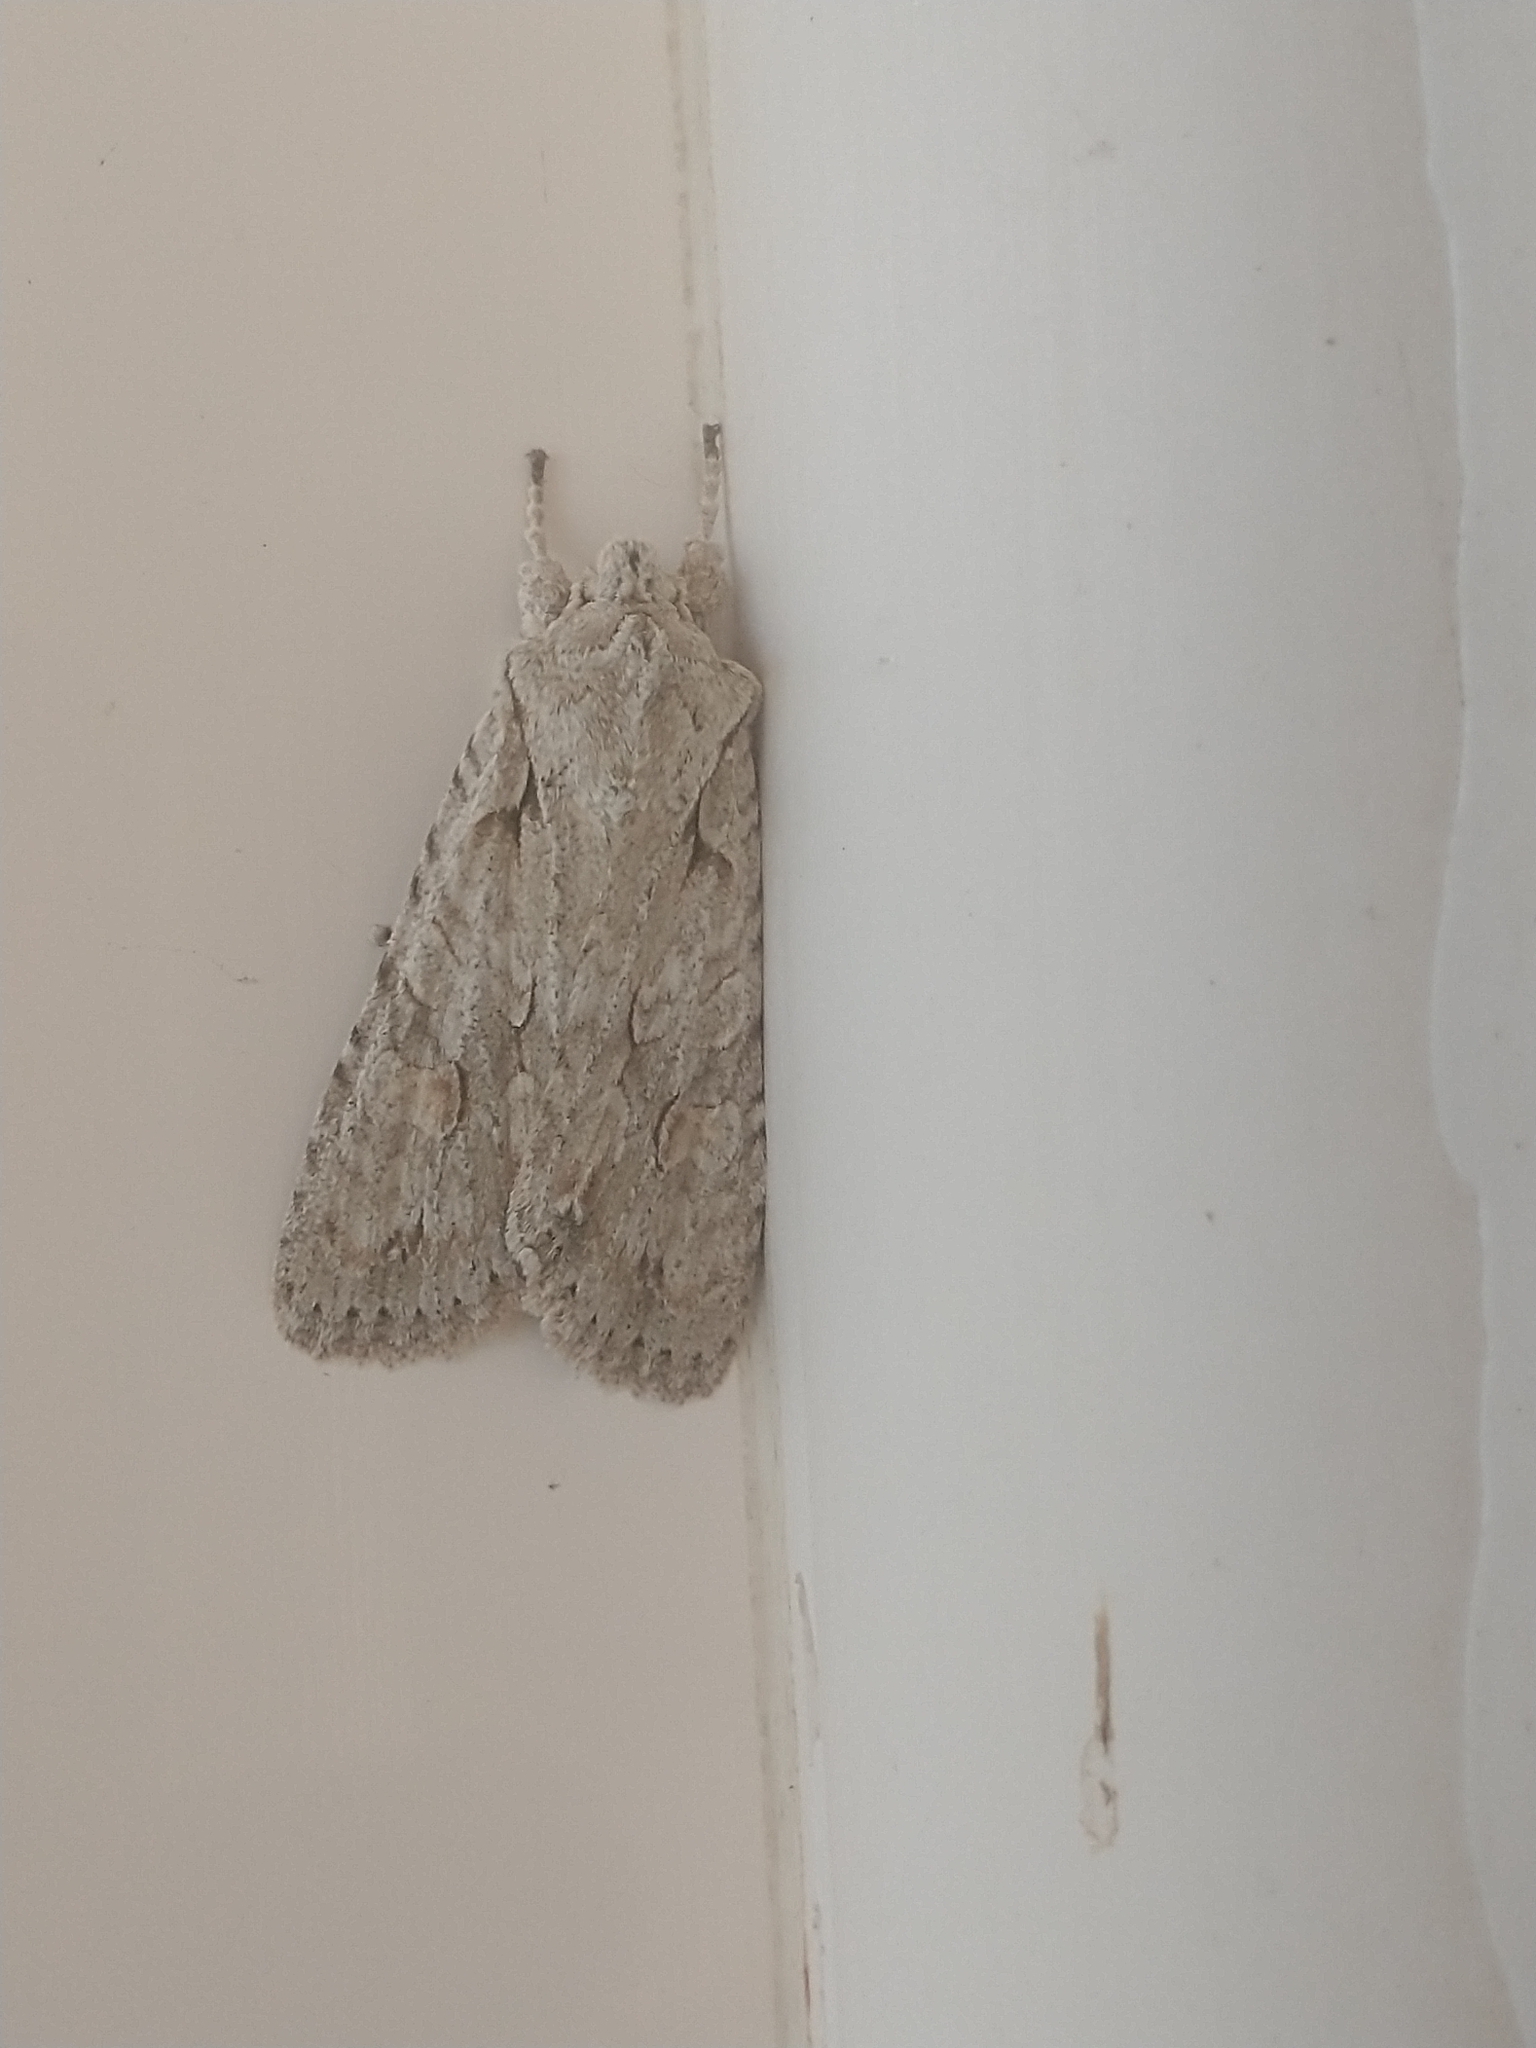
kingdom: Animalia
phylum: Arthropoda
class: Insecta
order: Lepidoptera
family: Noctuidae
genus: Lithophane
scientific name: Lithophane ornitopus
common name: Grey shoulder-knot
